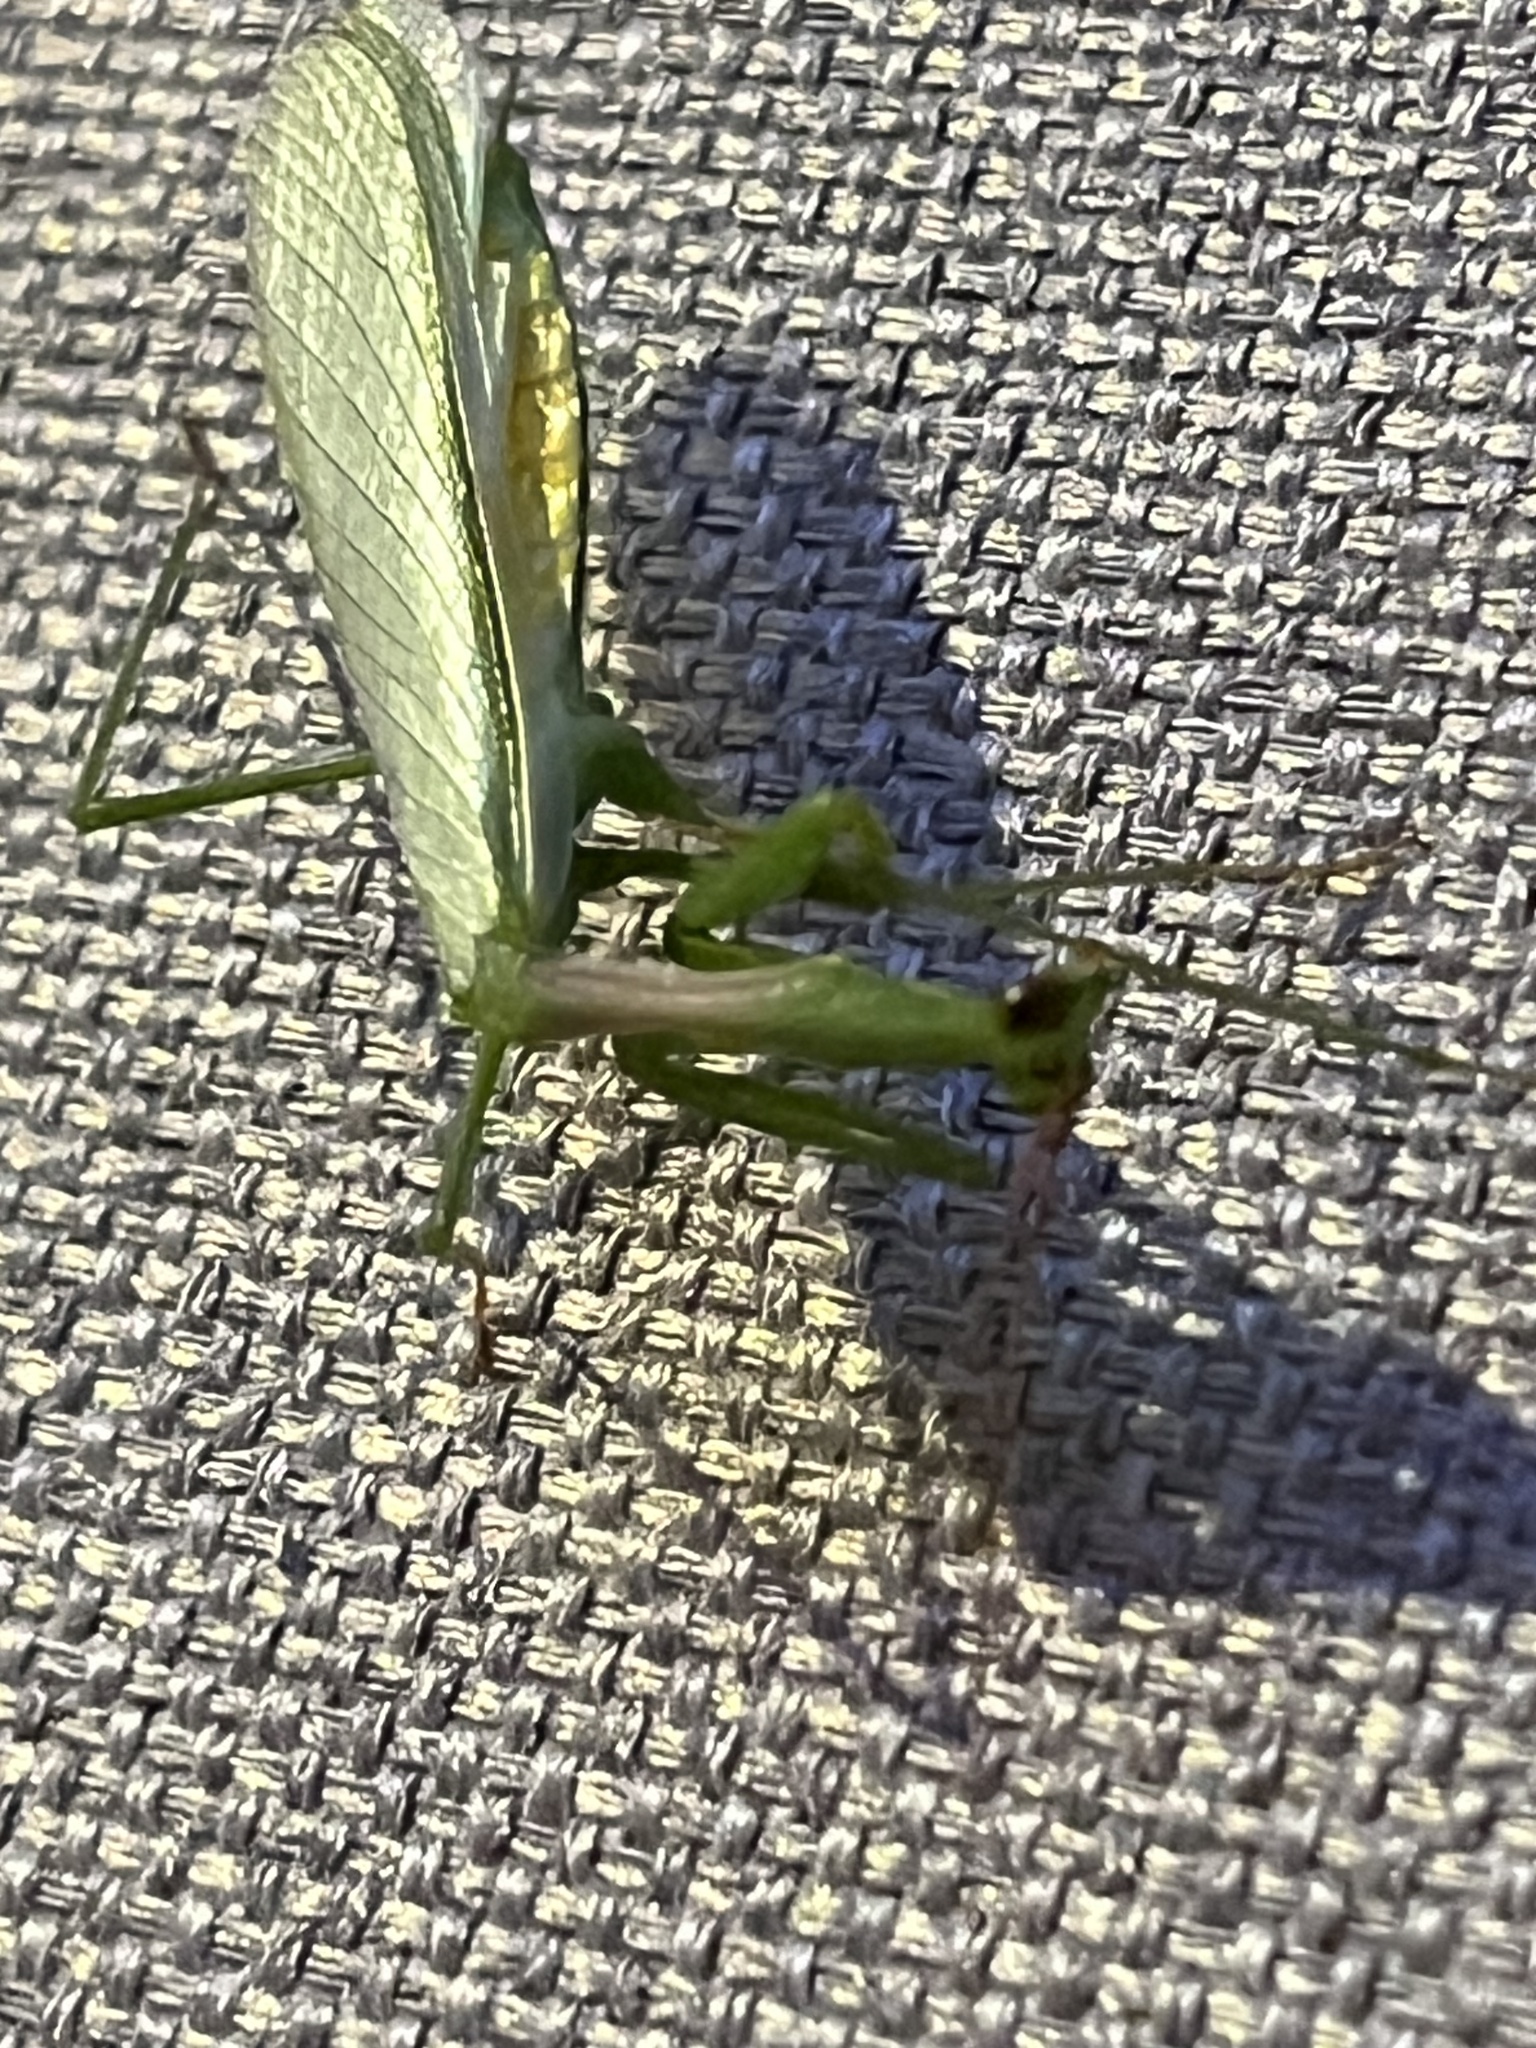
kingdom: Animalia
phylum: Arthropoda
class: Insecta
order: Mantodea
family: Miomantidae
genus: Miomantis
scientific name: Miomantis caffra
